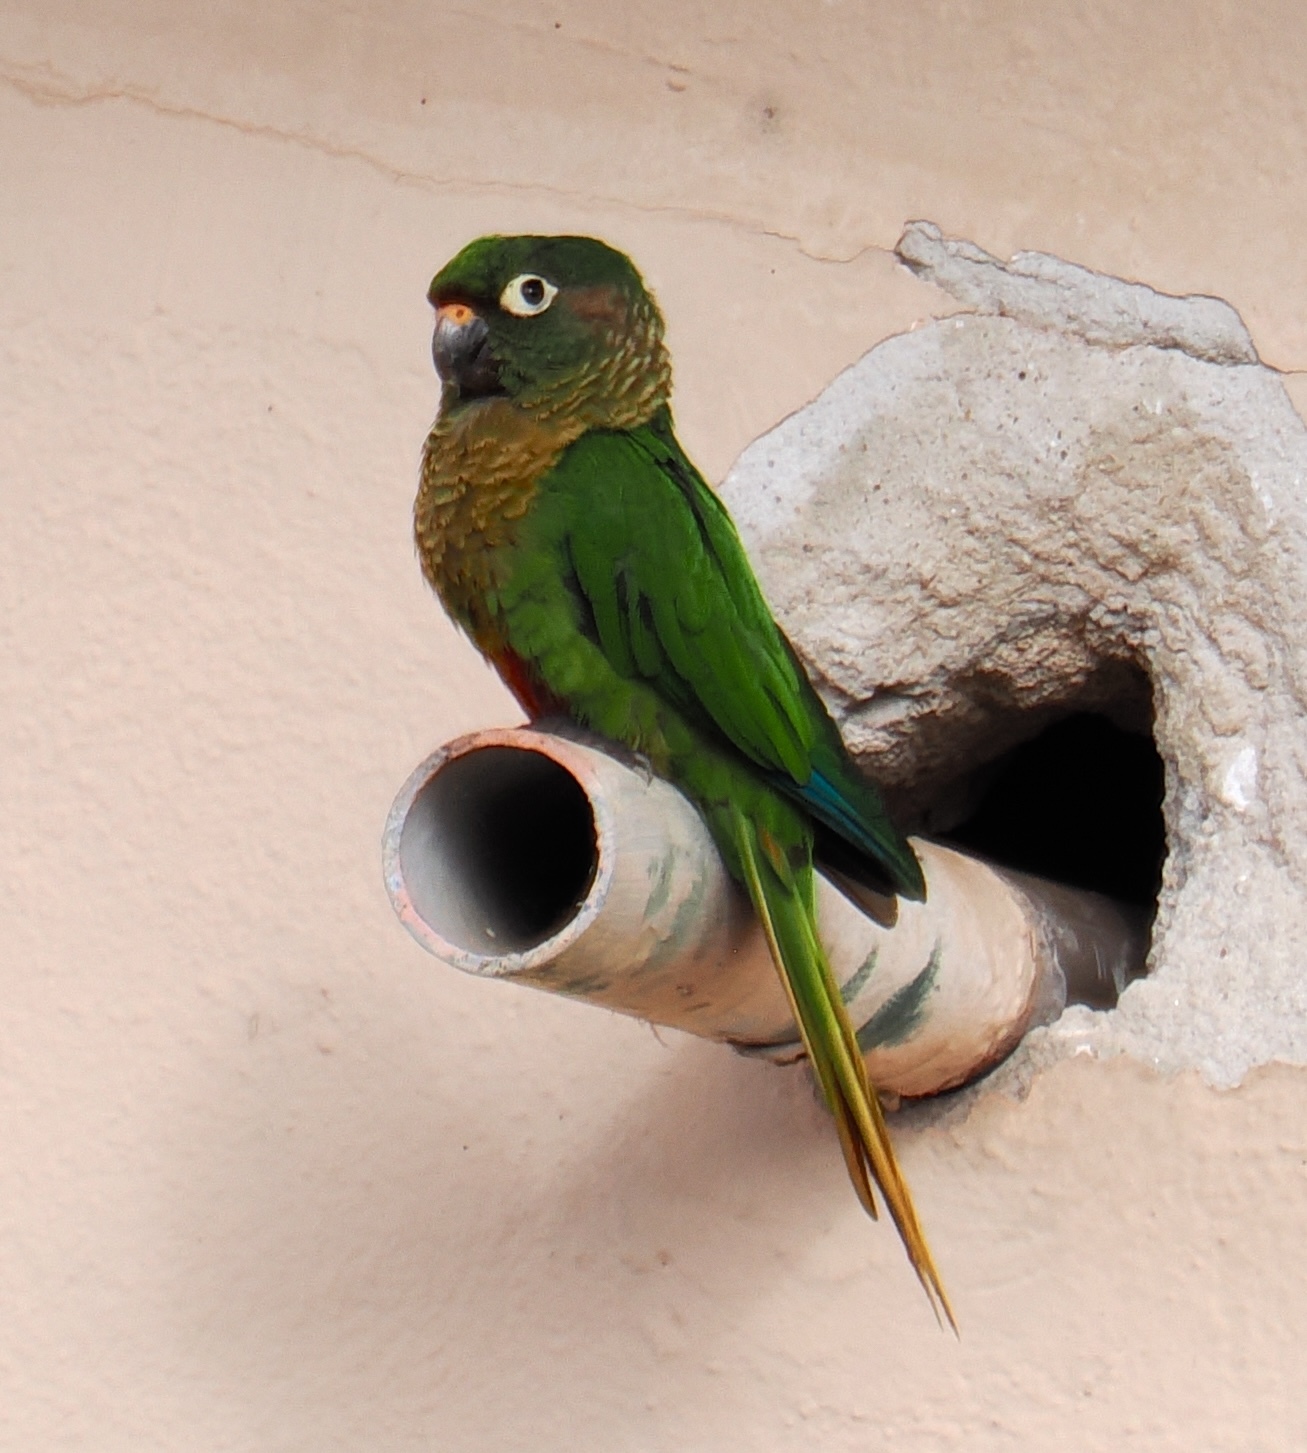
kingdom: Animalia
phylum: Chordata
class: Aves
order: Psittaciformes
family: Psittacidae
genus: Pyrrhura
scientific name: Pyrrhura frontalis
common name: Maroon-bellied parakeet
